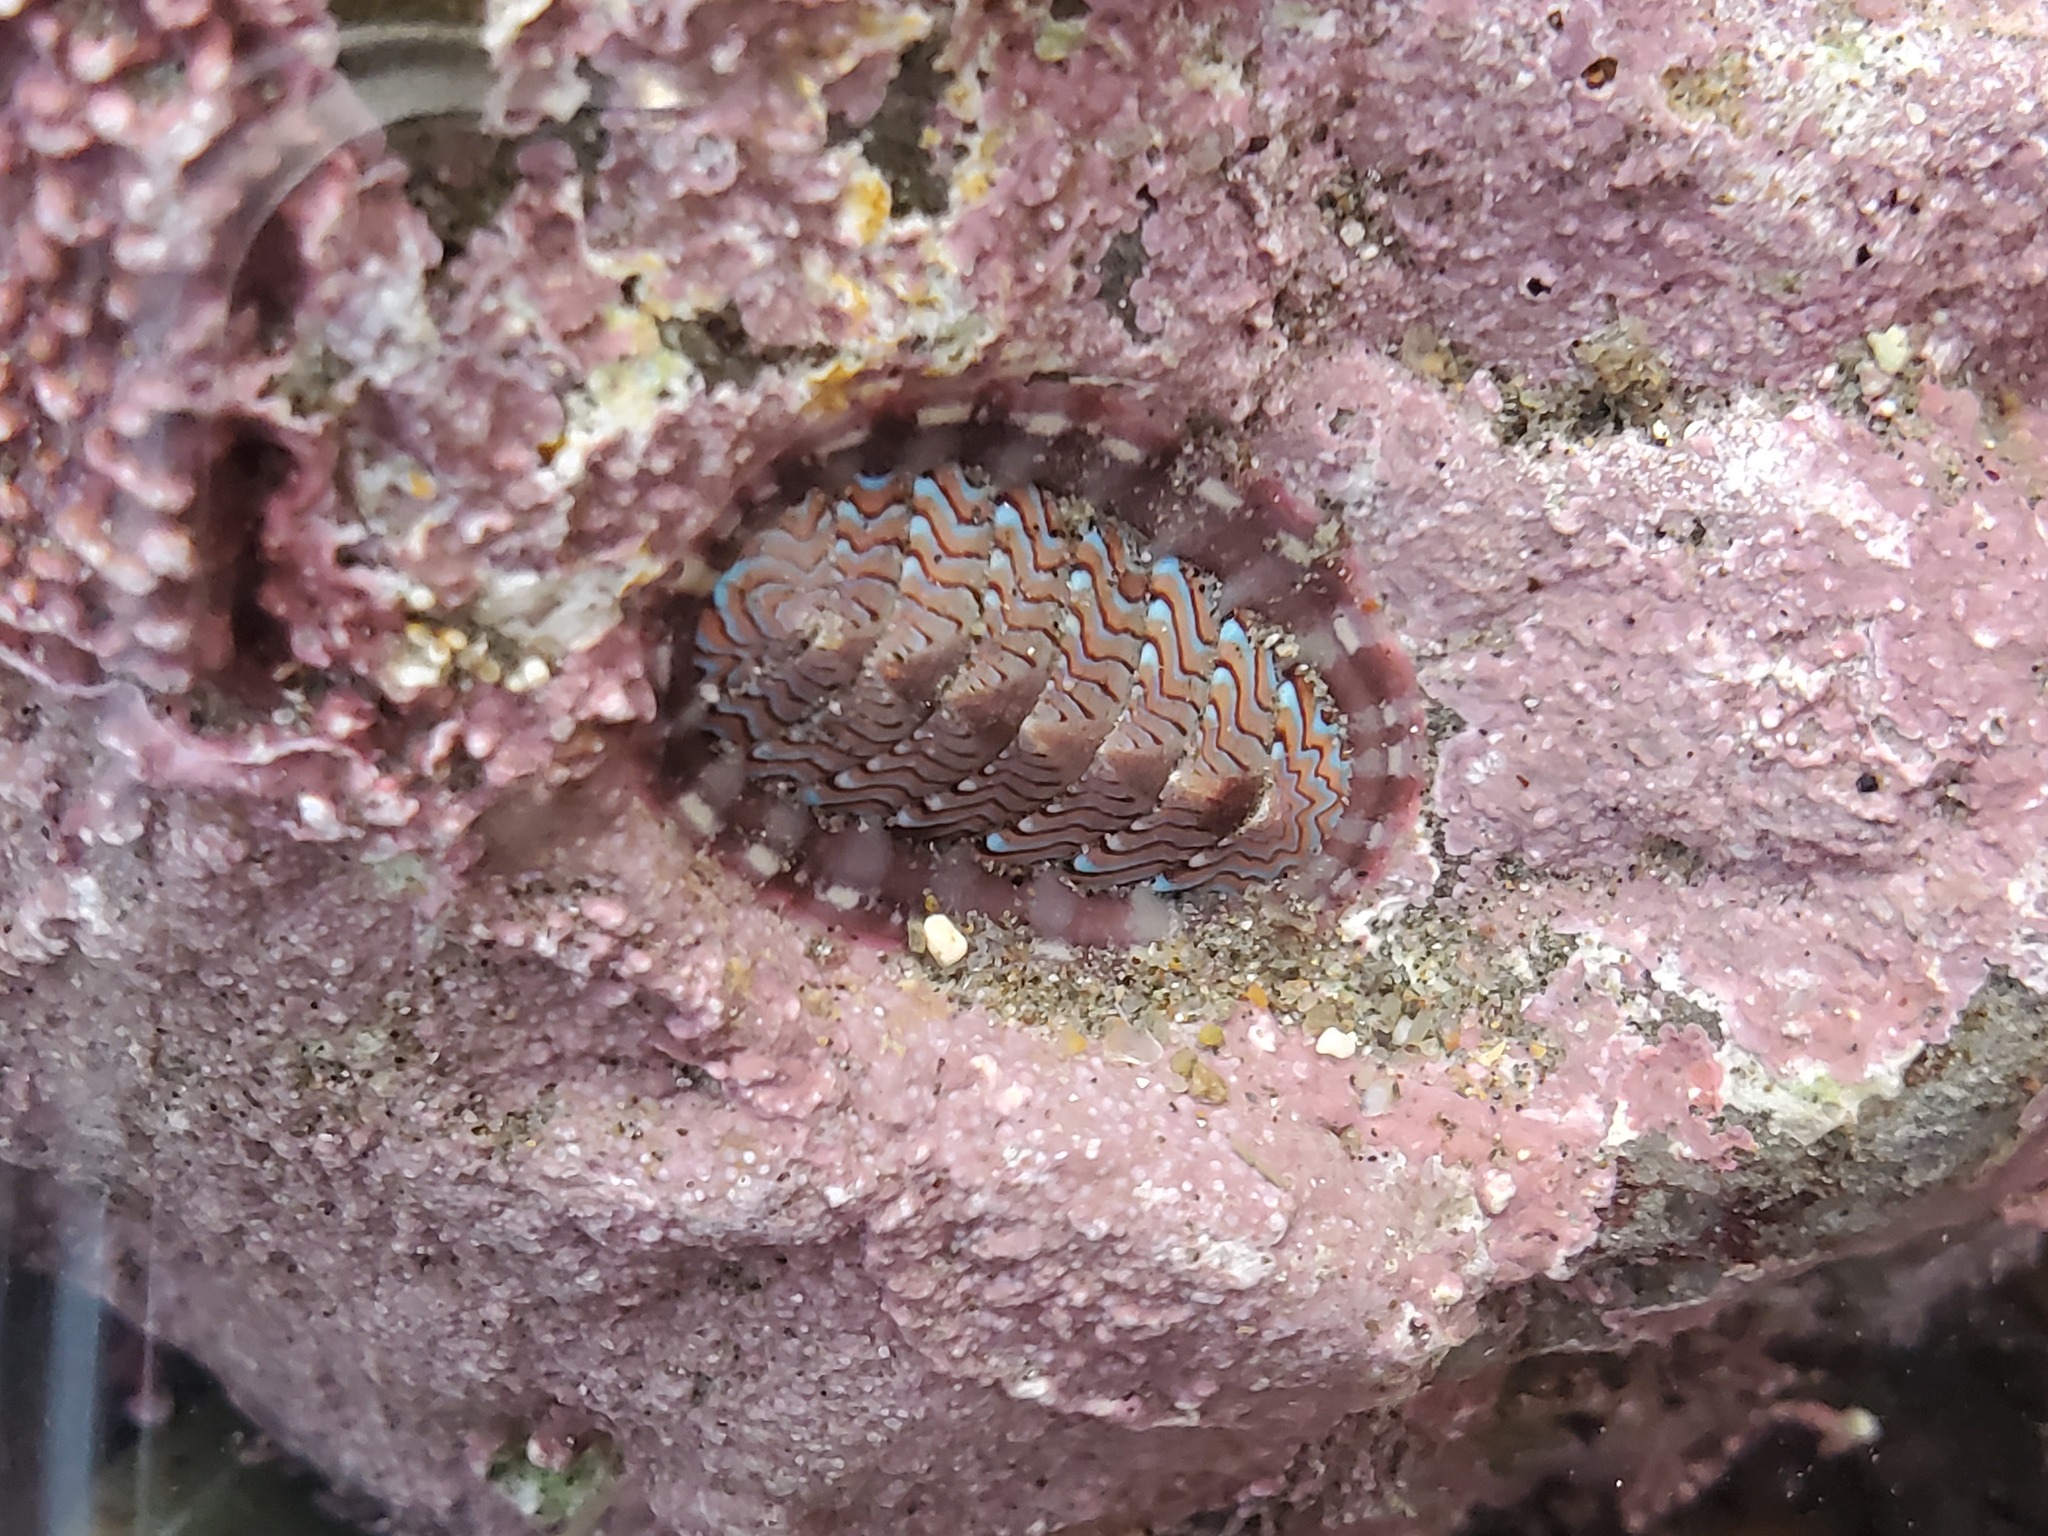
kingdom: Animalia
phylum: Mollusca
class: Polyplacophora
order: Chitonida
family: Tonicellidae
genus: Tonicella
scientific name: Tonicella lokii
